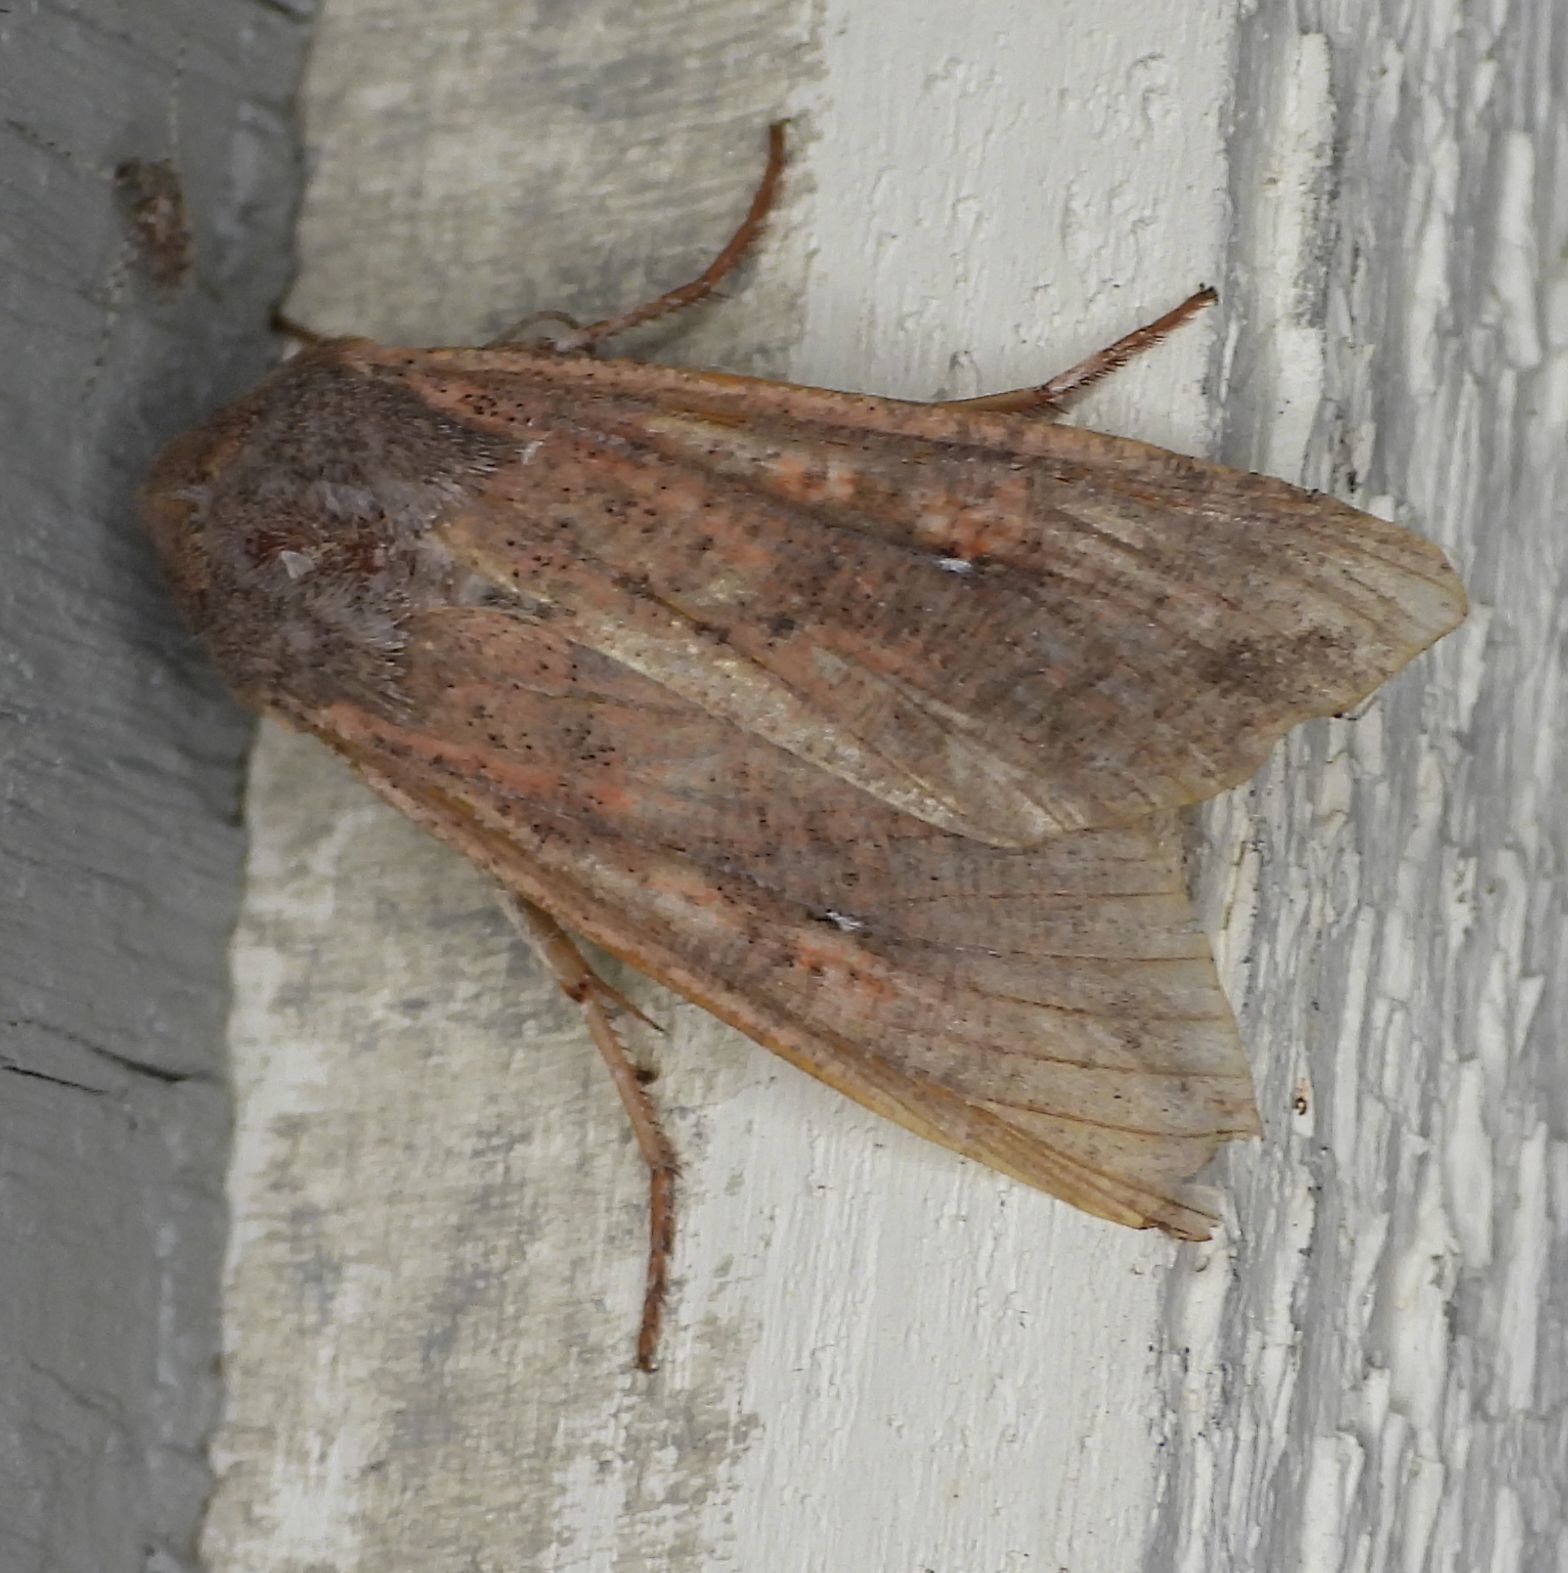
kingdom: Animalia
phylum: Arthropoda
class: Insecta
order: Lepidoptera
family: Noctuidae
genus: Mythimna
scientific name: Mythimna unipuncta
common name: White-speck
